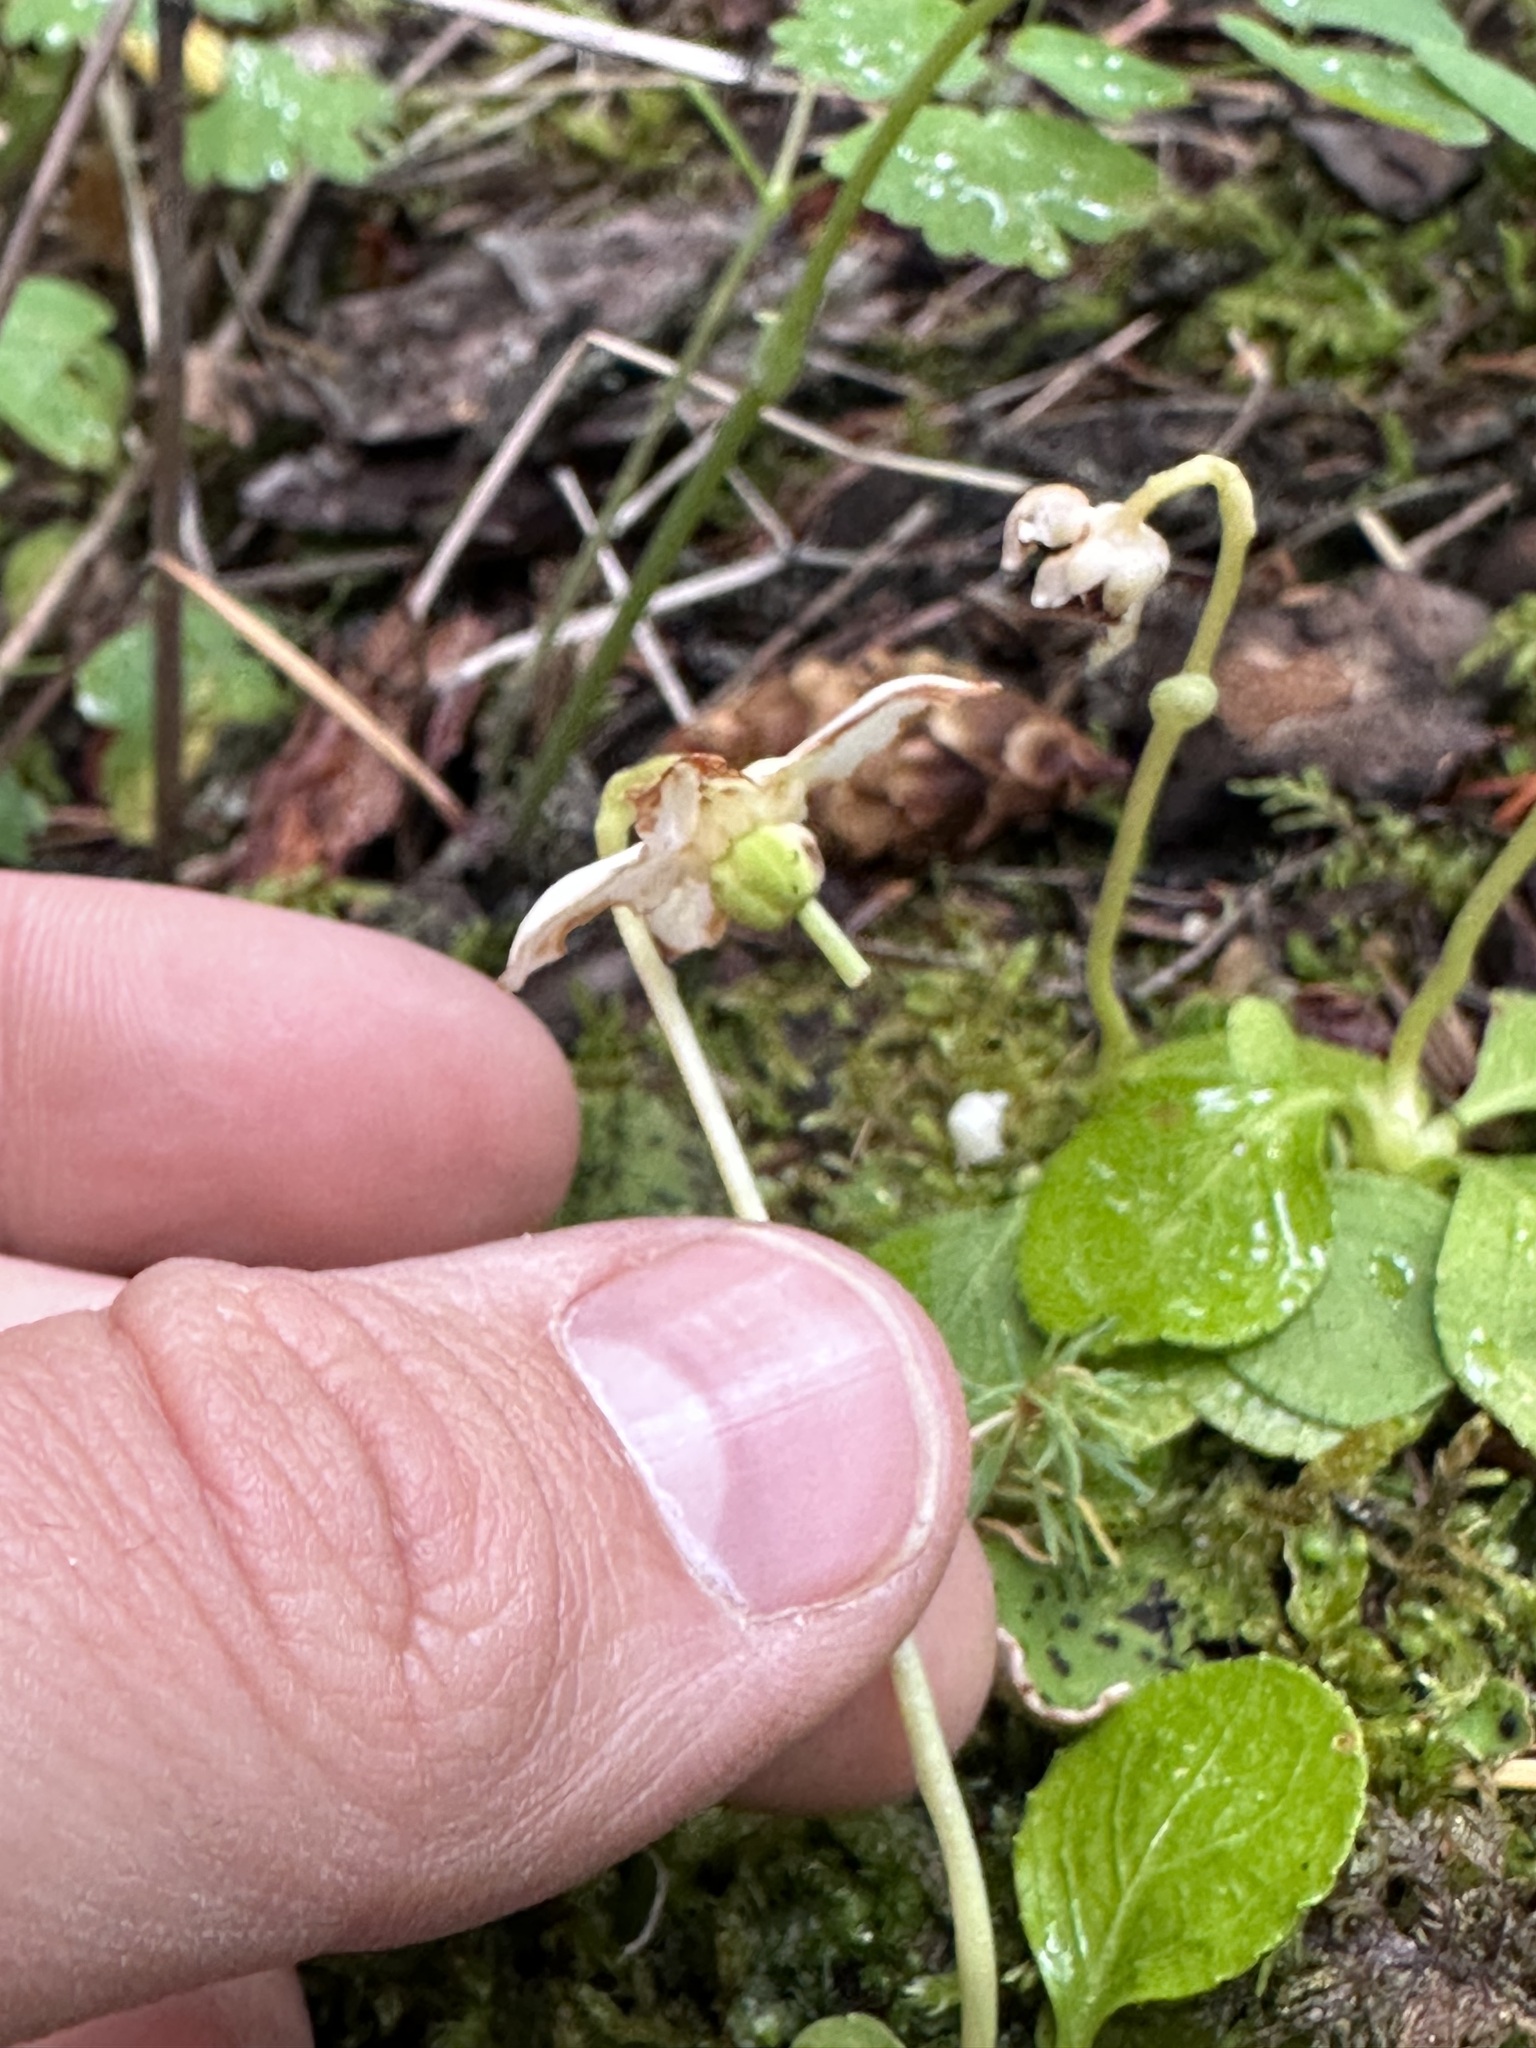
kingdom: Plantae
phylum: Tracheophyta
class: Magnoliopsida
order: Ericales
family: Ericaceae
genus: Moneses
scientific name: Moneses uniflora
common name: One-flowered wintergreen
